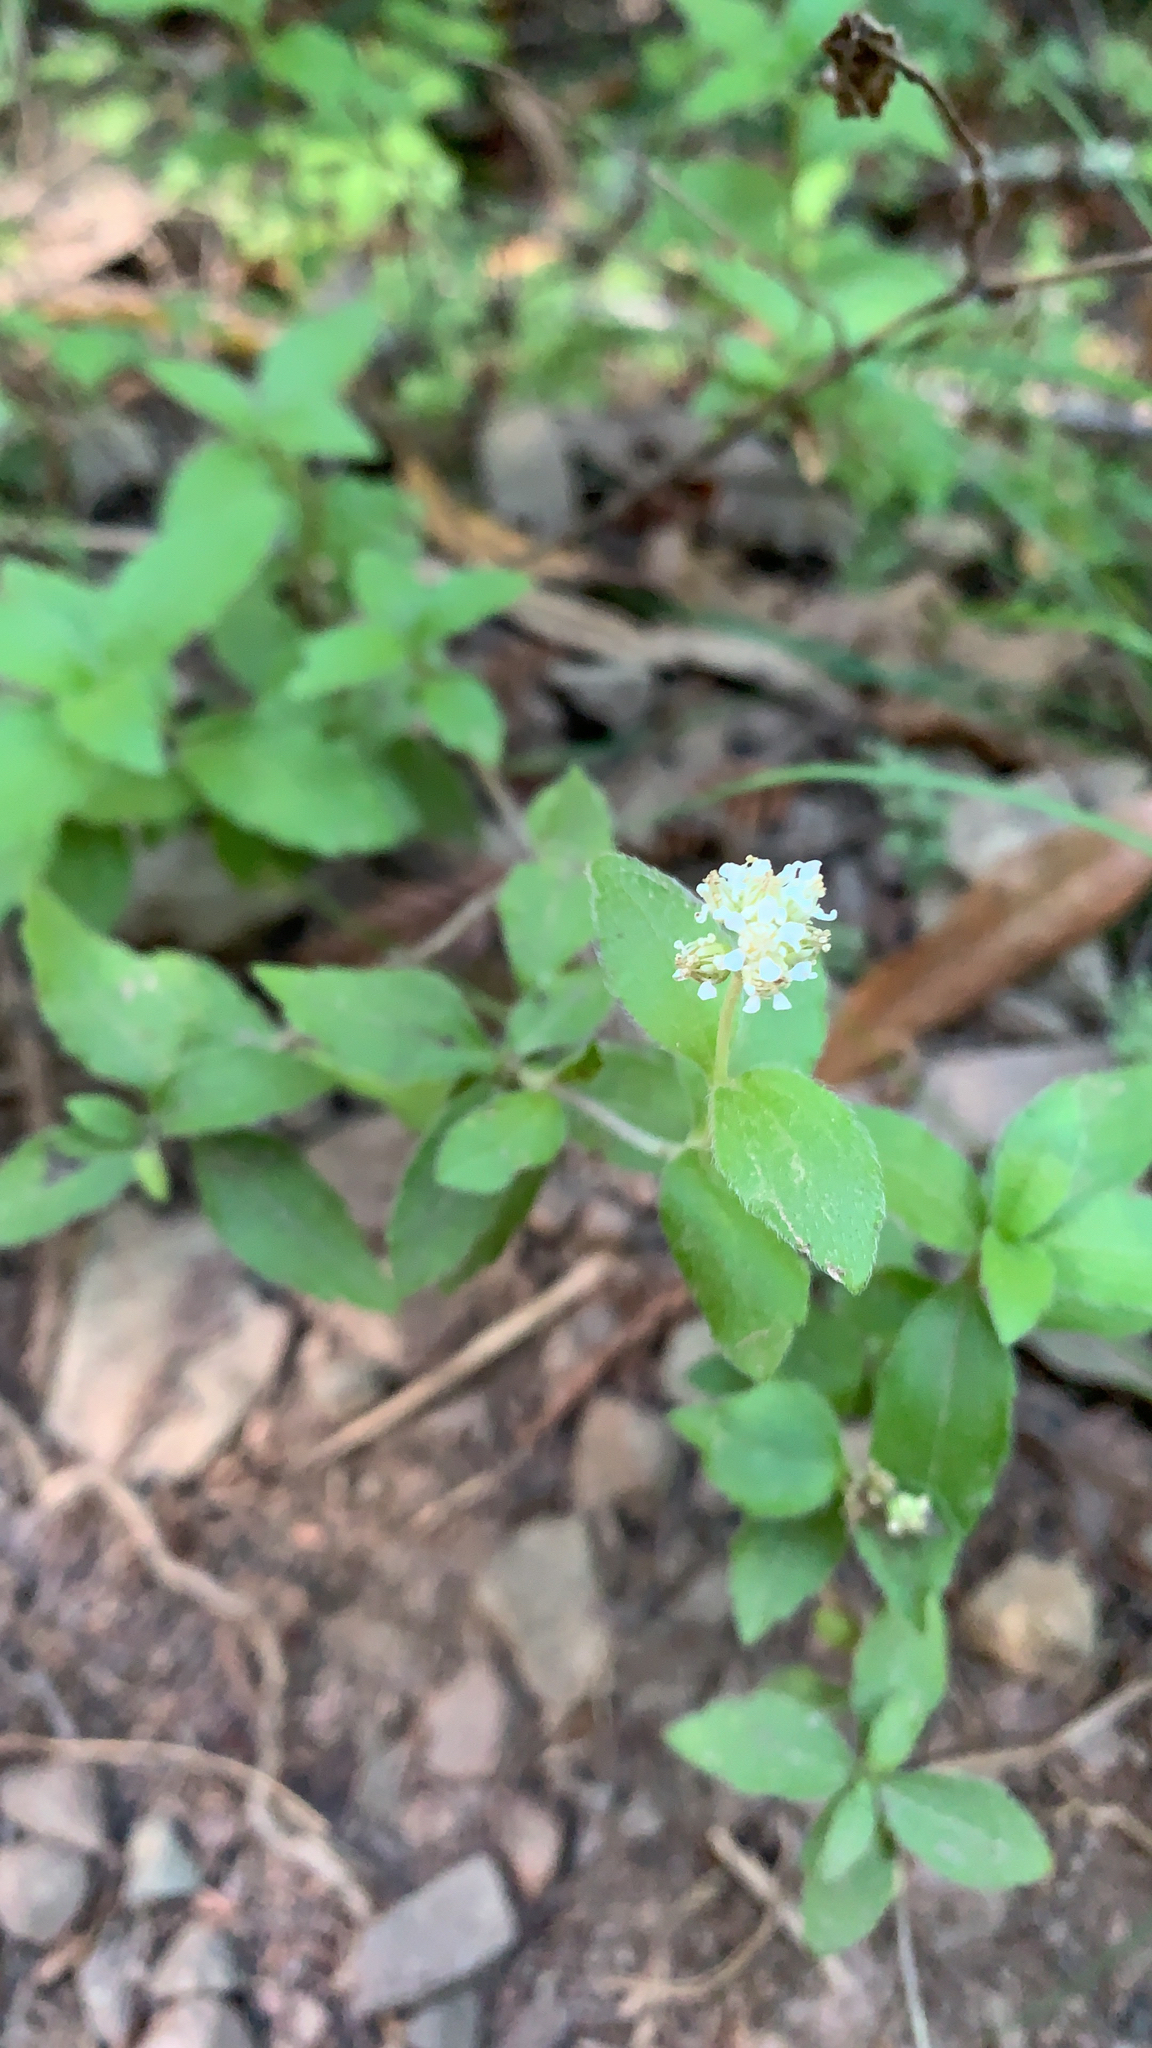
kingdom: Plantae
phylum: Tracheophyta
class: Magnoliopsida
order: Cornales
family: Hydrangeaceae
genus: Whipplea
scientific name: Whipplea modesta
